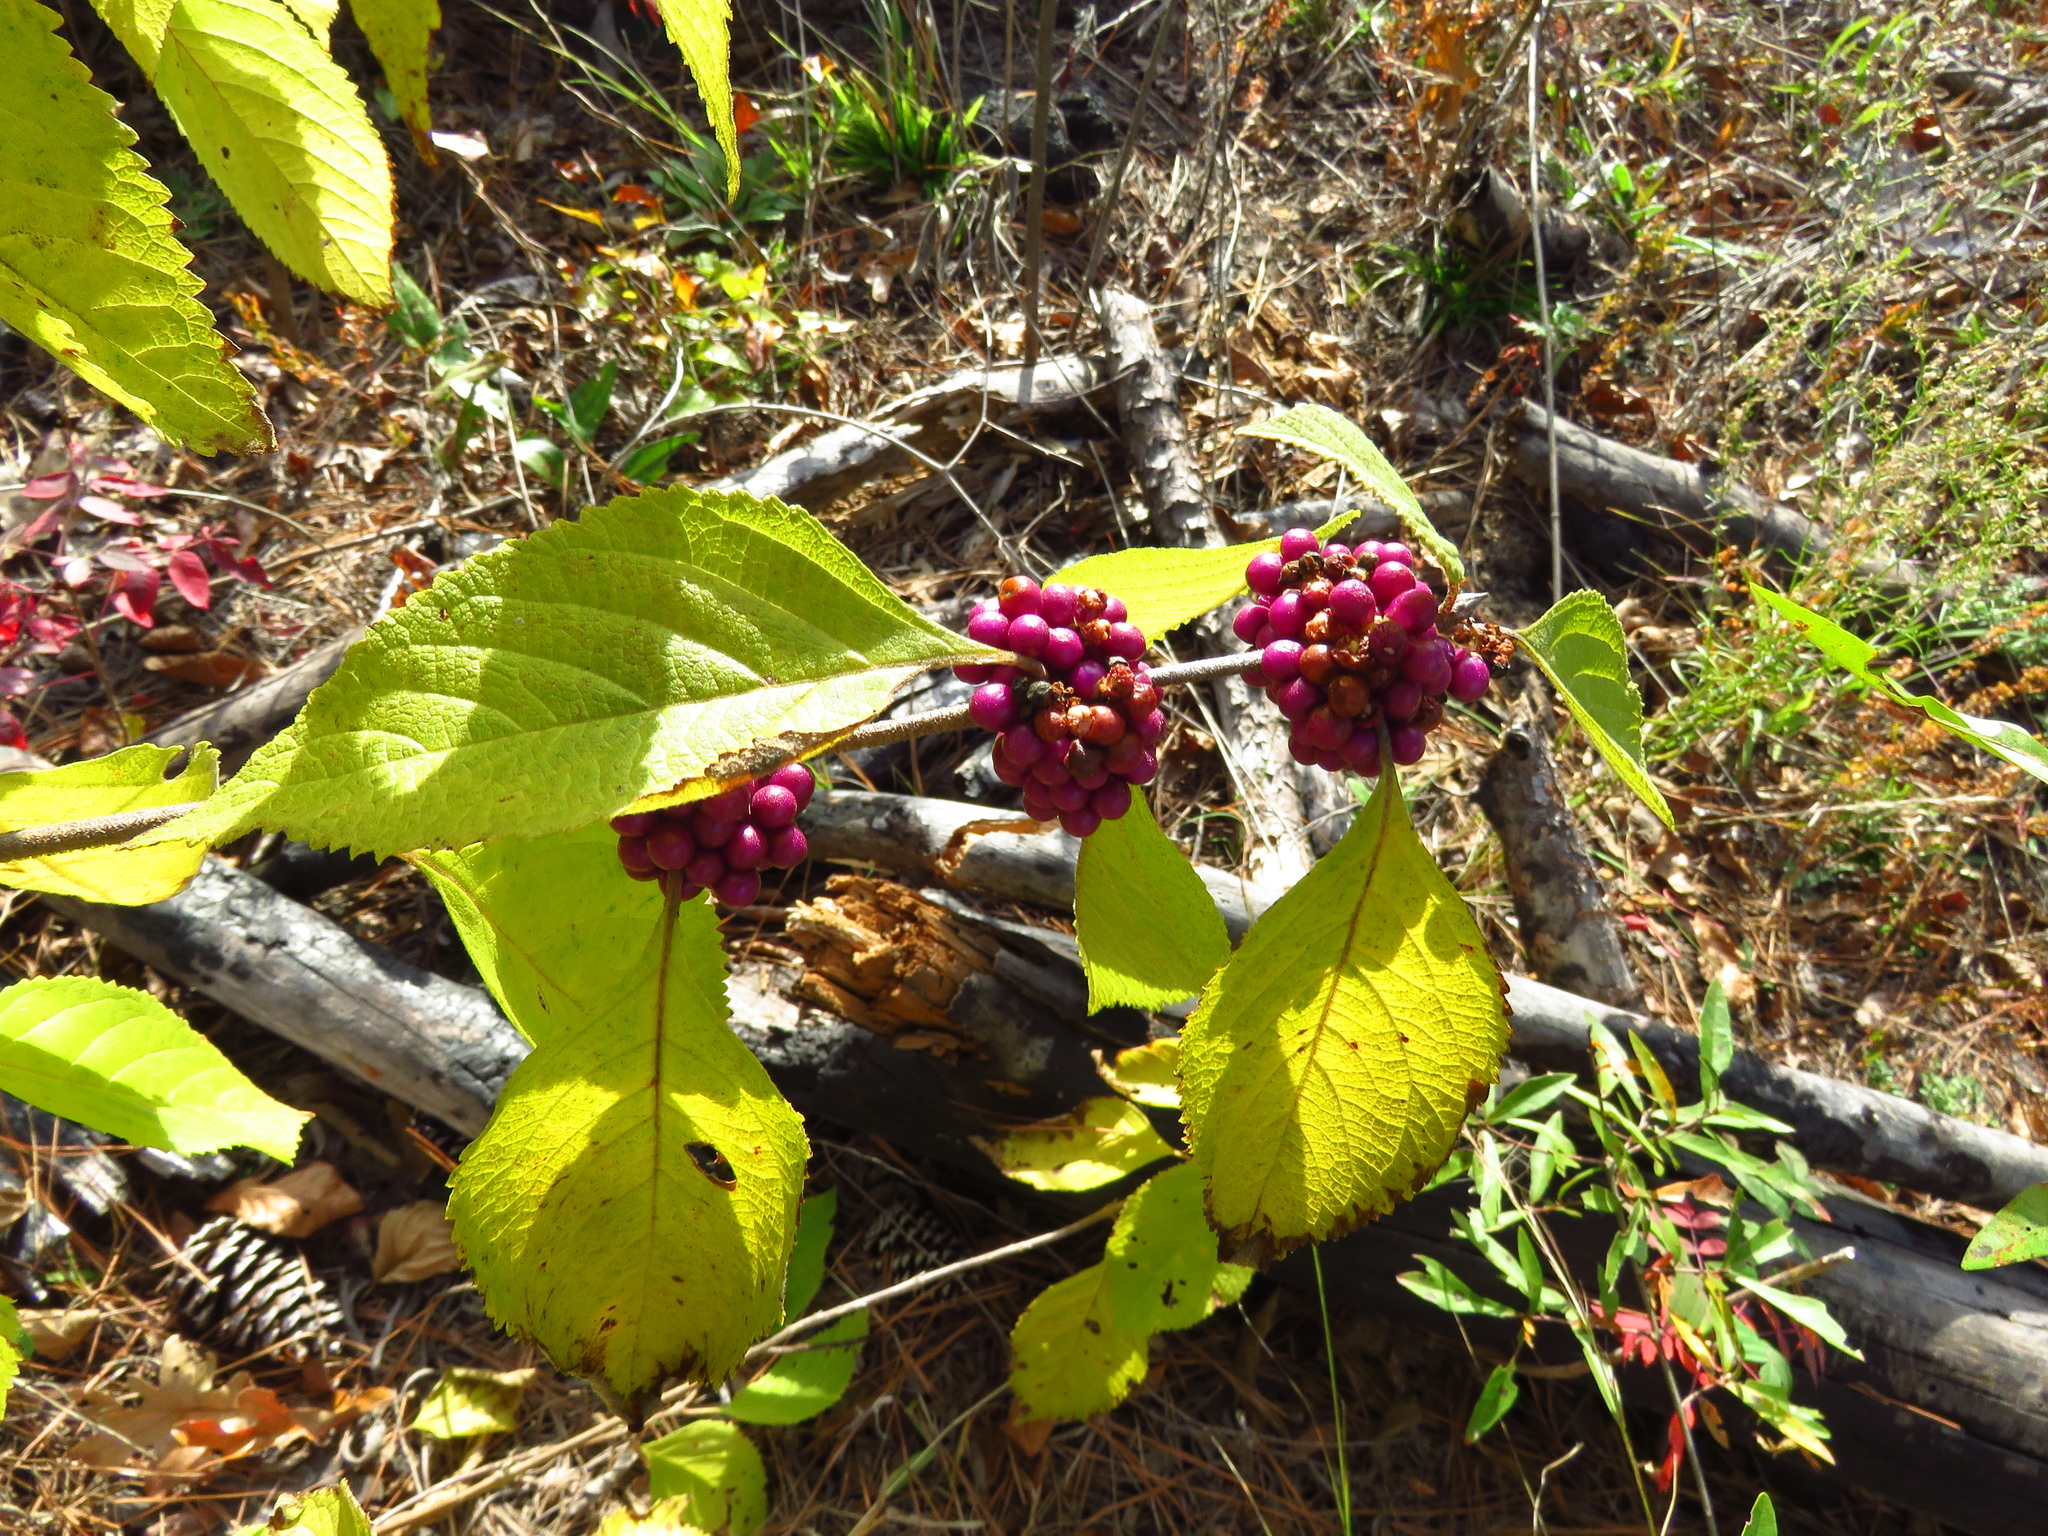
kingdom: Plantae
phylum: Tracheophyta
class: Magnoliopsida
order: Lamiales
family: Lamiaceae
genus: Callicarpa
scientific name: Callicarpa americana
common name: American beautyberry
